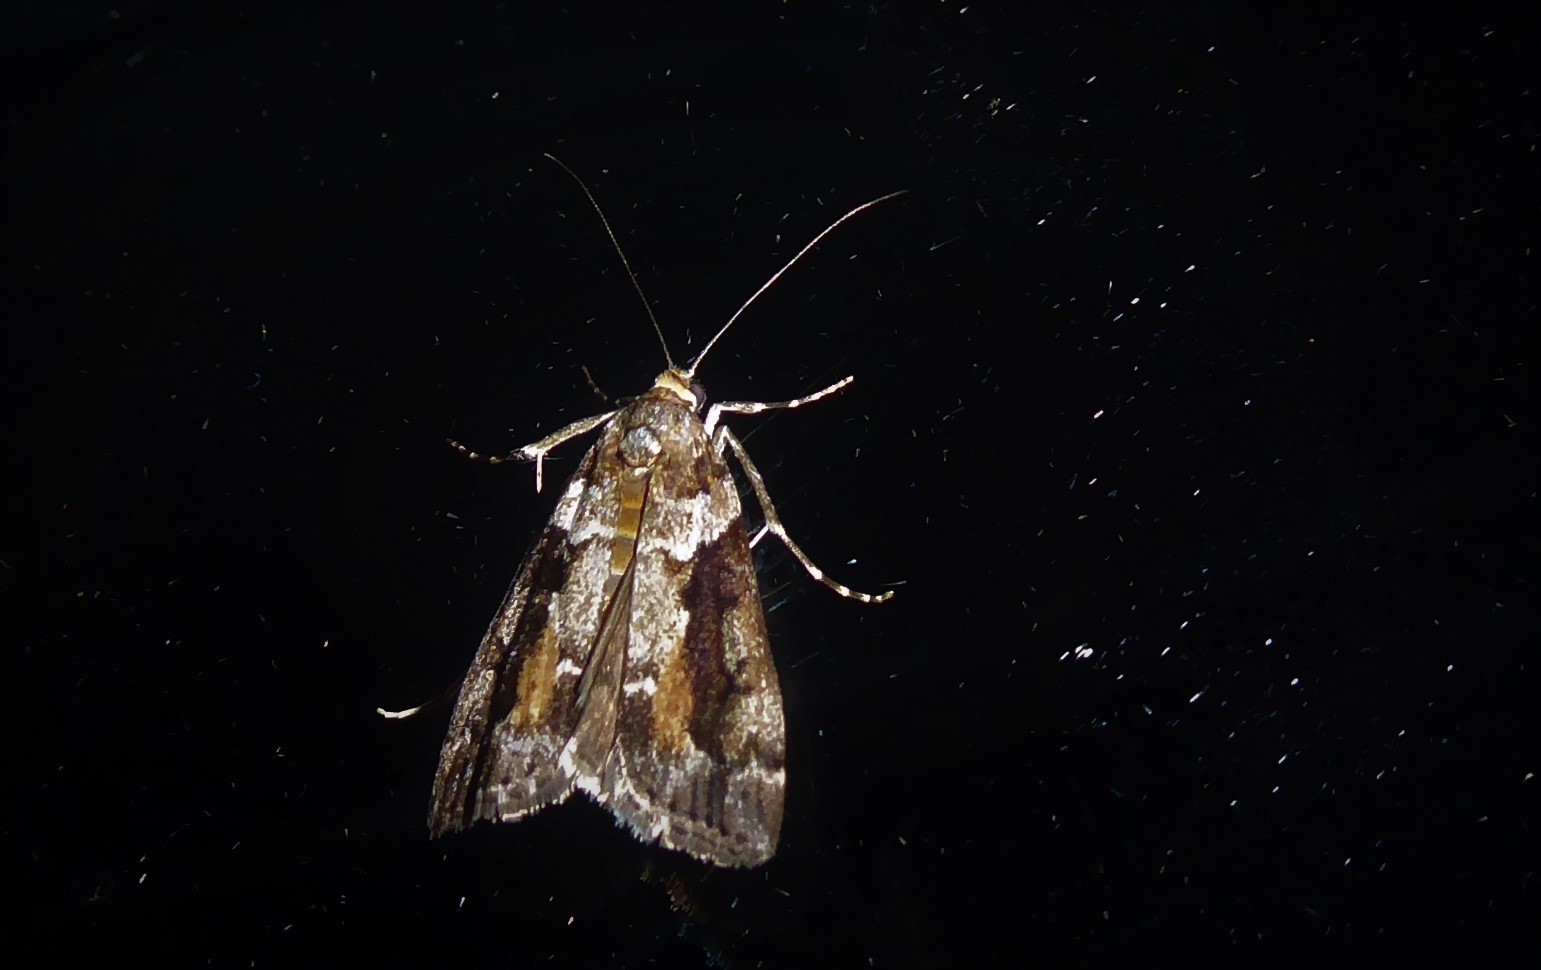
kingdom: Animalia
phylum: Arthropoda
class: Insecta
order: Lepidoptera
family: Crambidae
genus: Eudonia
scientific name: Eudonia submarginalis
